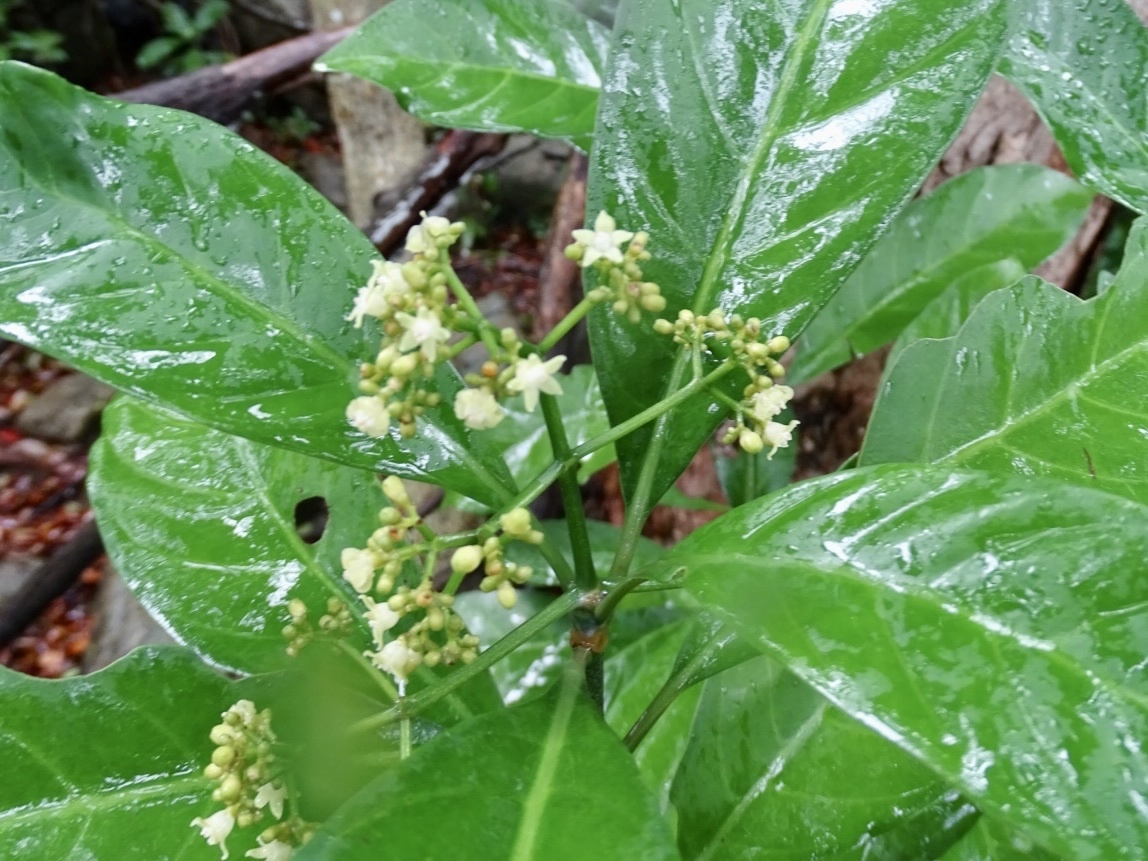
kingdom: Plantae
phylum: Tracheophyta
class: Magnoliopsida
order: Gentianales
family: Rubiaceae
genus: Psychotria
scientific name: Psychotria asiatica
